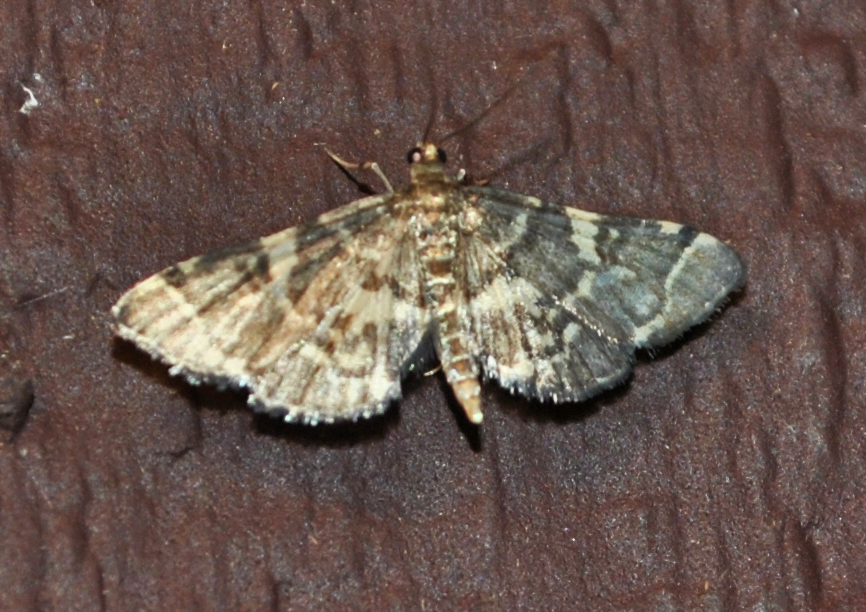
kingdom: Animalia
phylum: Arthropoda
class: Insecta
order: Lepidoptera
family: Crambidae
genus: Anageshna
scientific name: Anageshna primordialis
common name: Yellow-spotted webworm moth
